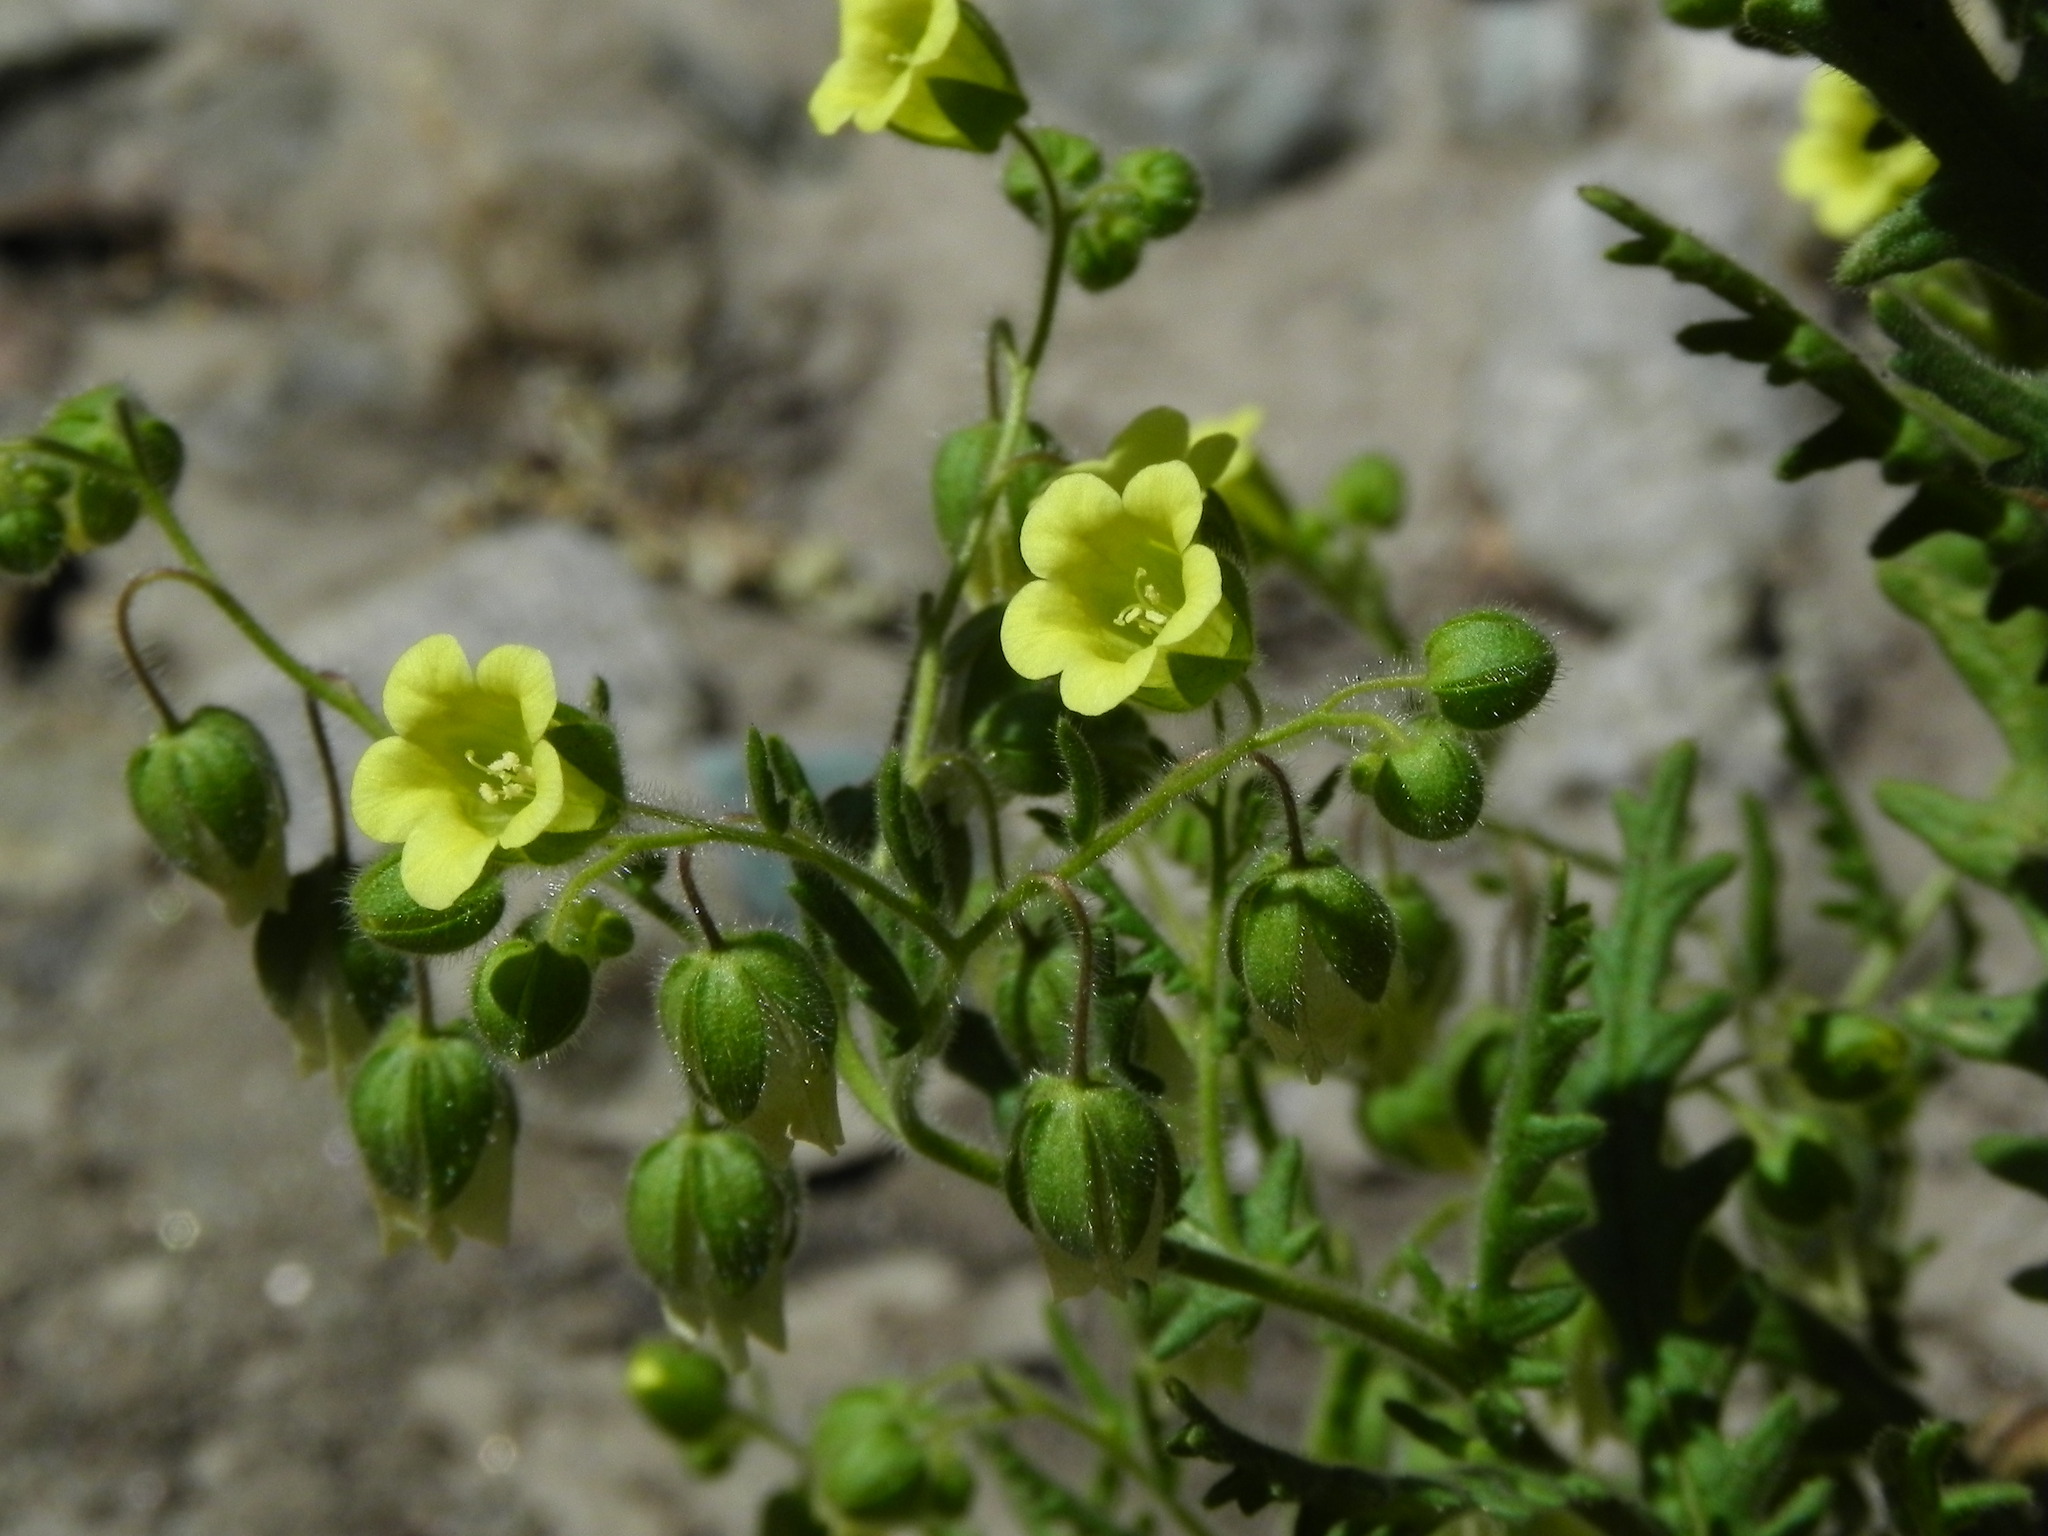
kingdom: Plantae
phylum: Tracheophyta
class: Magnoliopsida
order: Boraginales
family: Hydrophyllaceae
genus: Emmenanthe
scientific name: Emmenanthe penduliflora
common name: Whispering-bells
